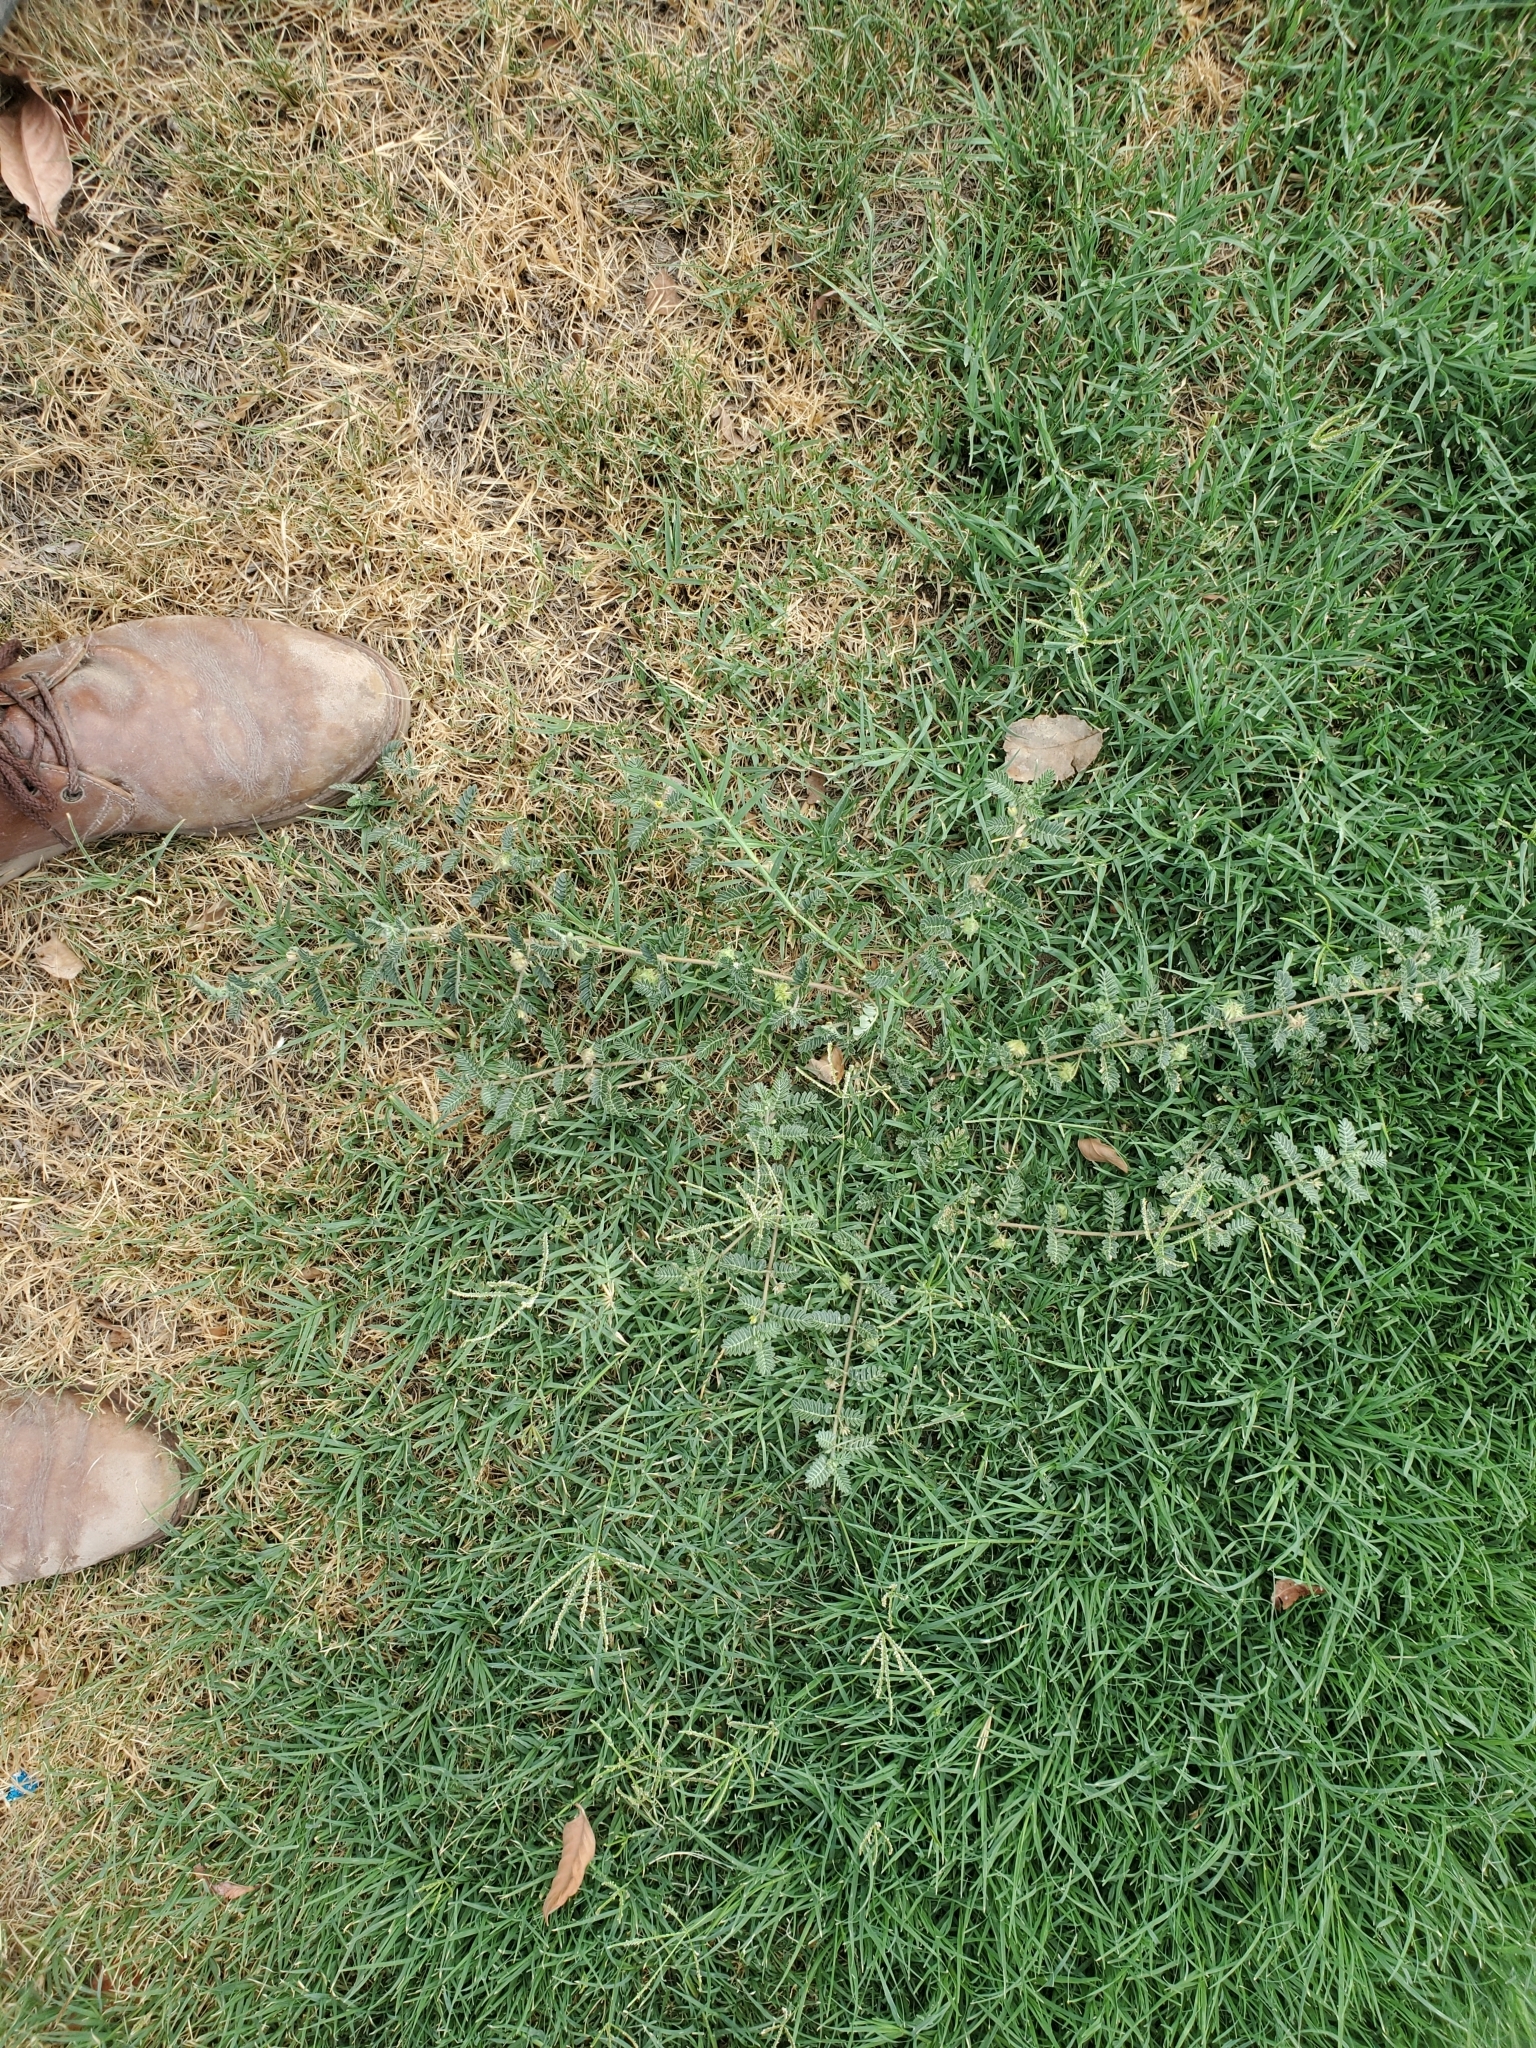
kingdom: Plantae
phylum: Tracheophyta
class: Magnoliopsida
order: Zygophyllales
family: Zygophyllaceae
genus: Tribulus
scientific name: Tribulus terrestris
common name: Puncturevine
